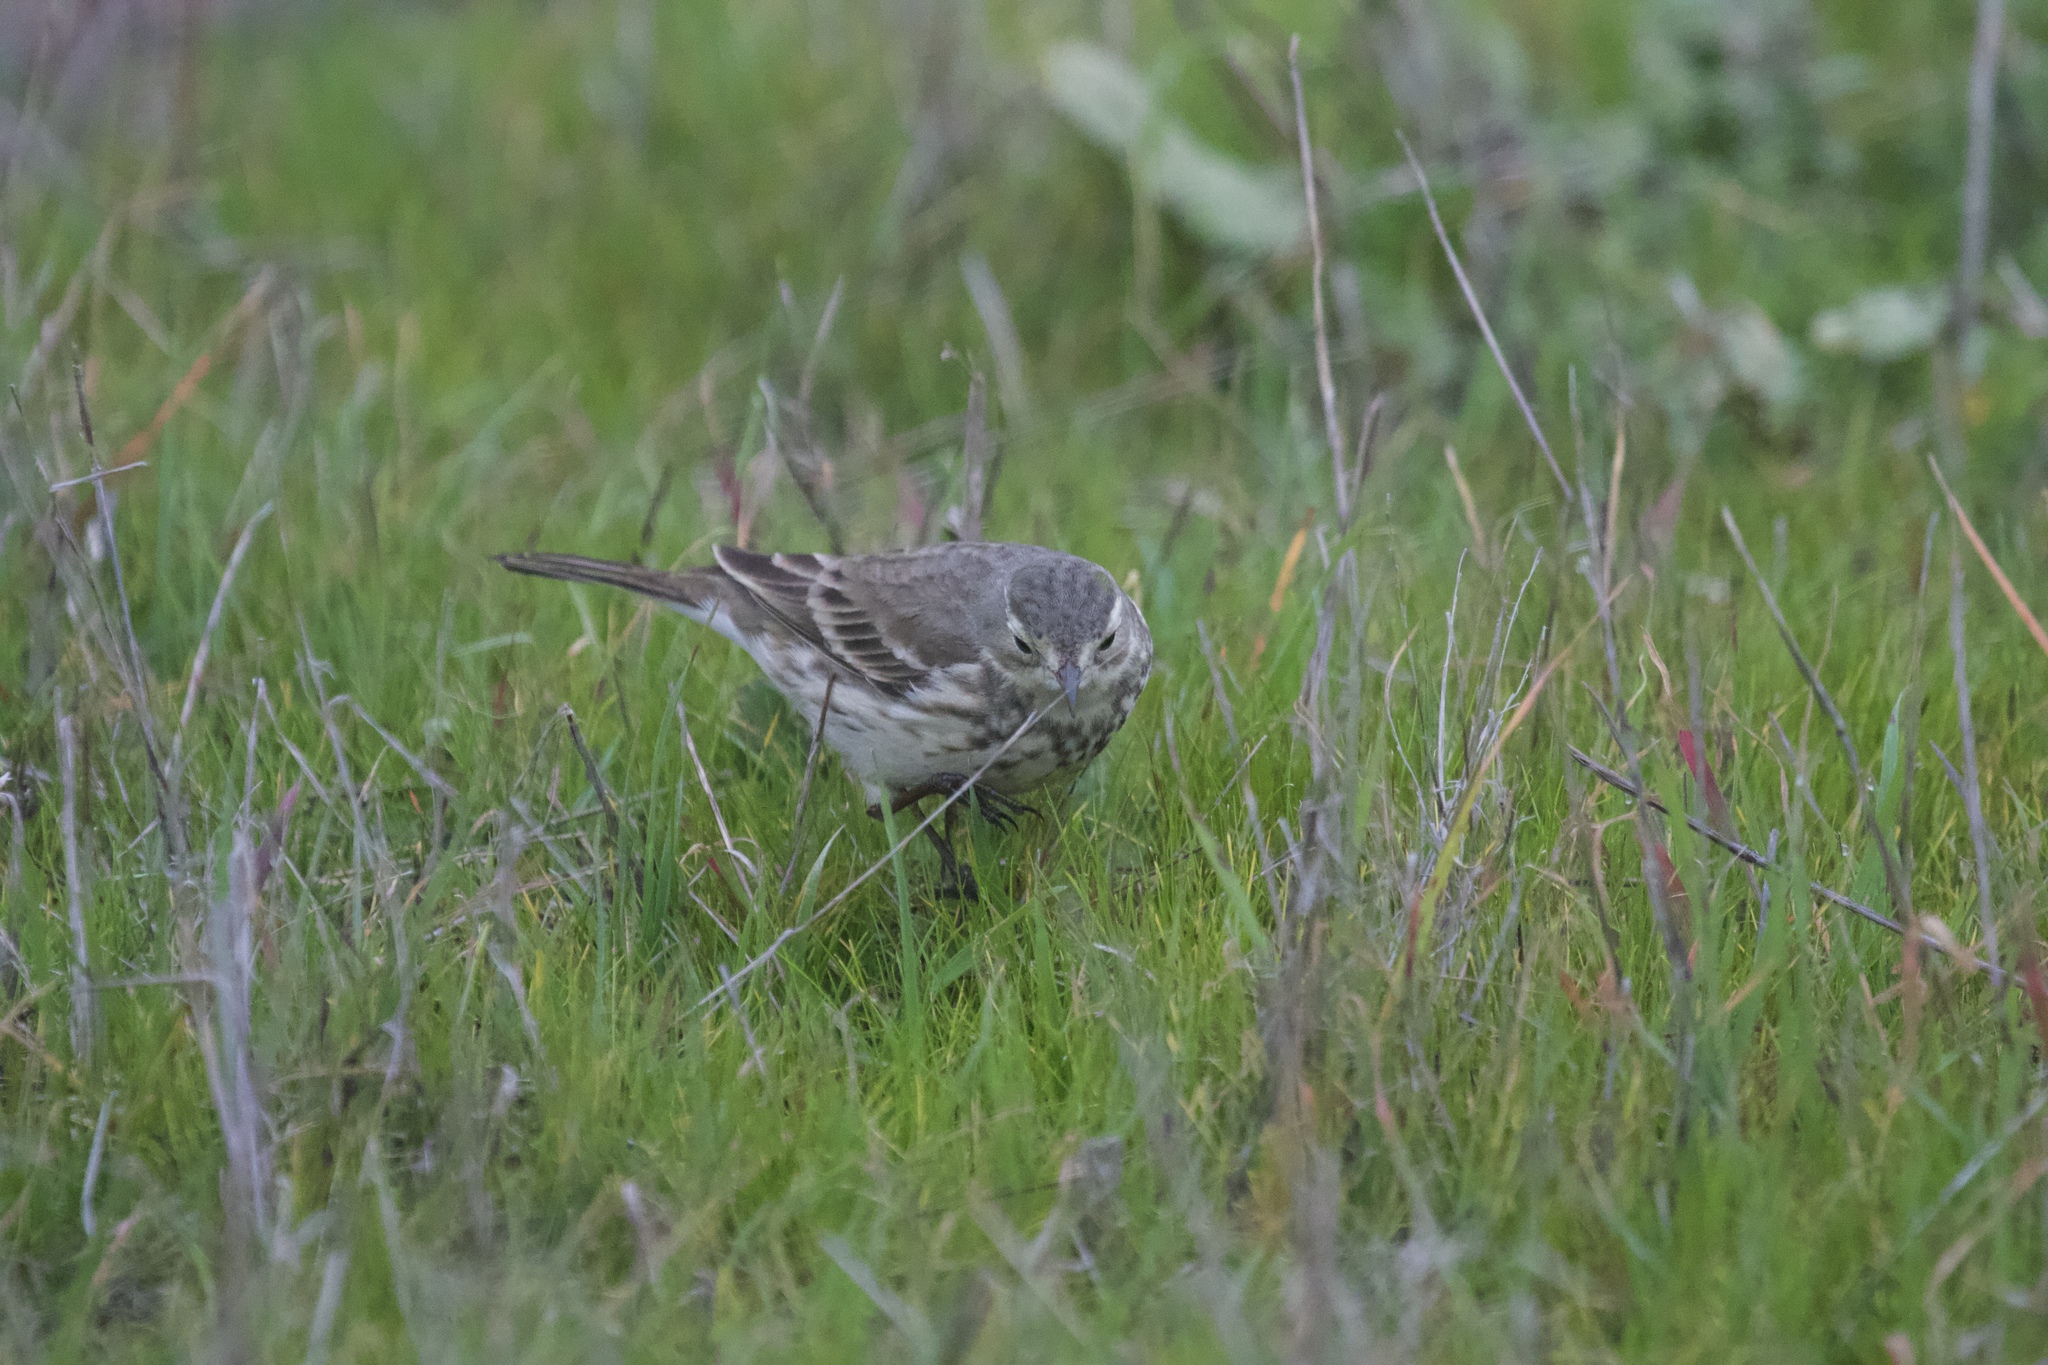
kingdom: Animalia
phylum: Chordata
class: Aves
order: Passeriformes
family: Motacillidae
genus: Anthus
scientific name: Anthus rubescens
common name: Buff-bellied pipit
